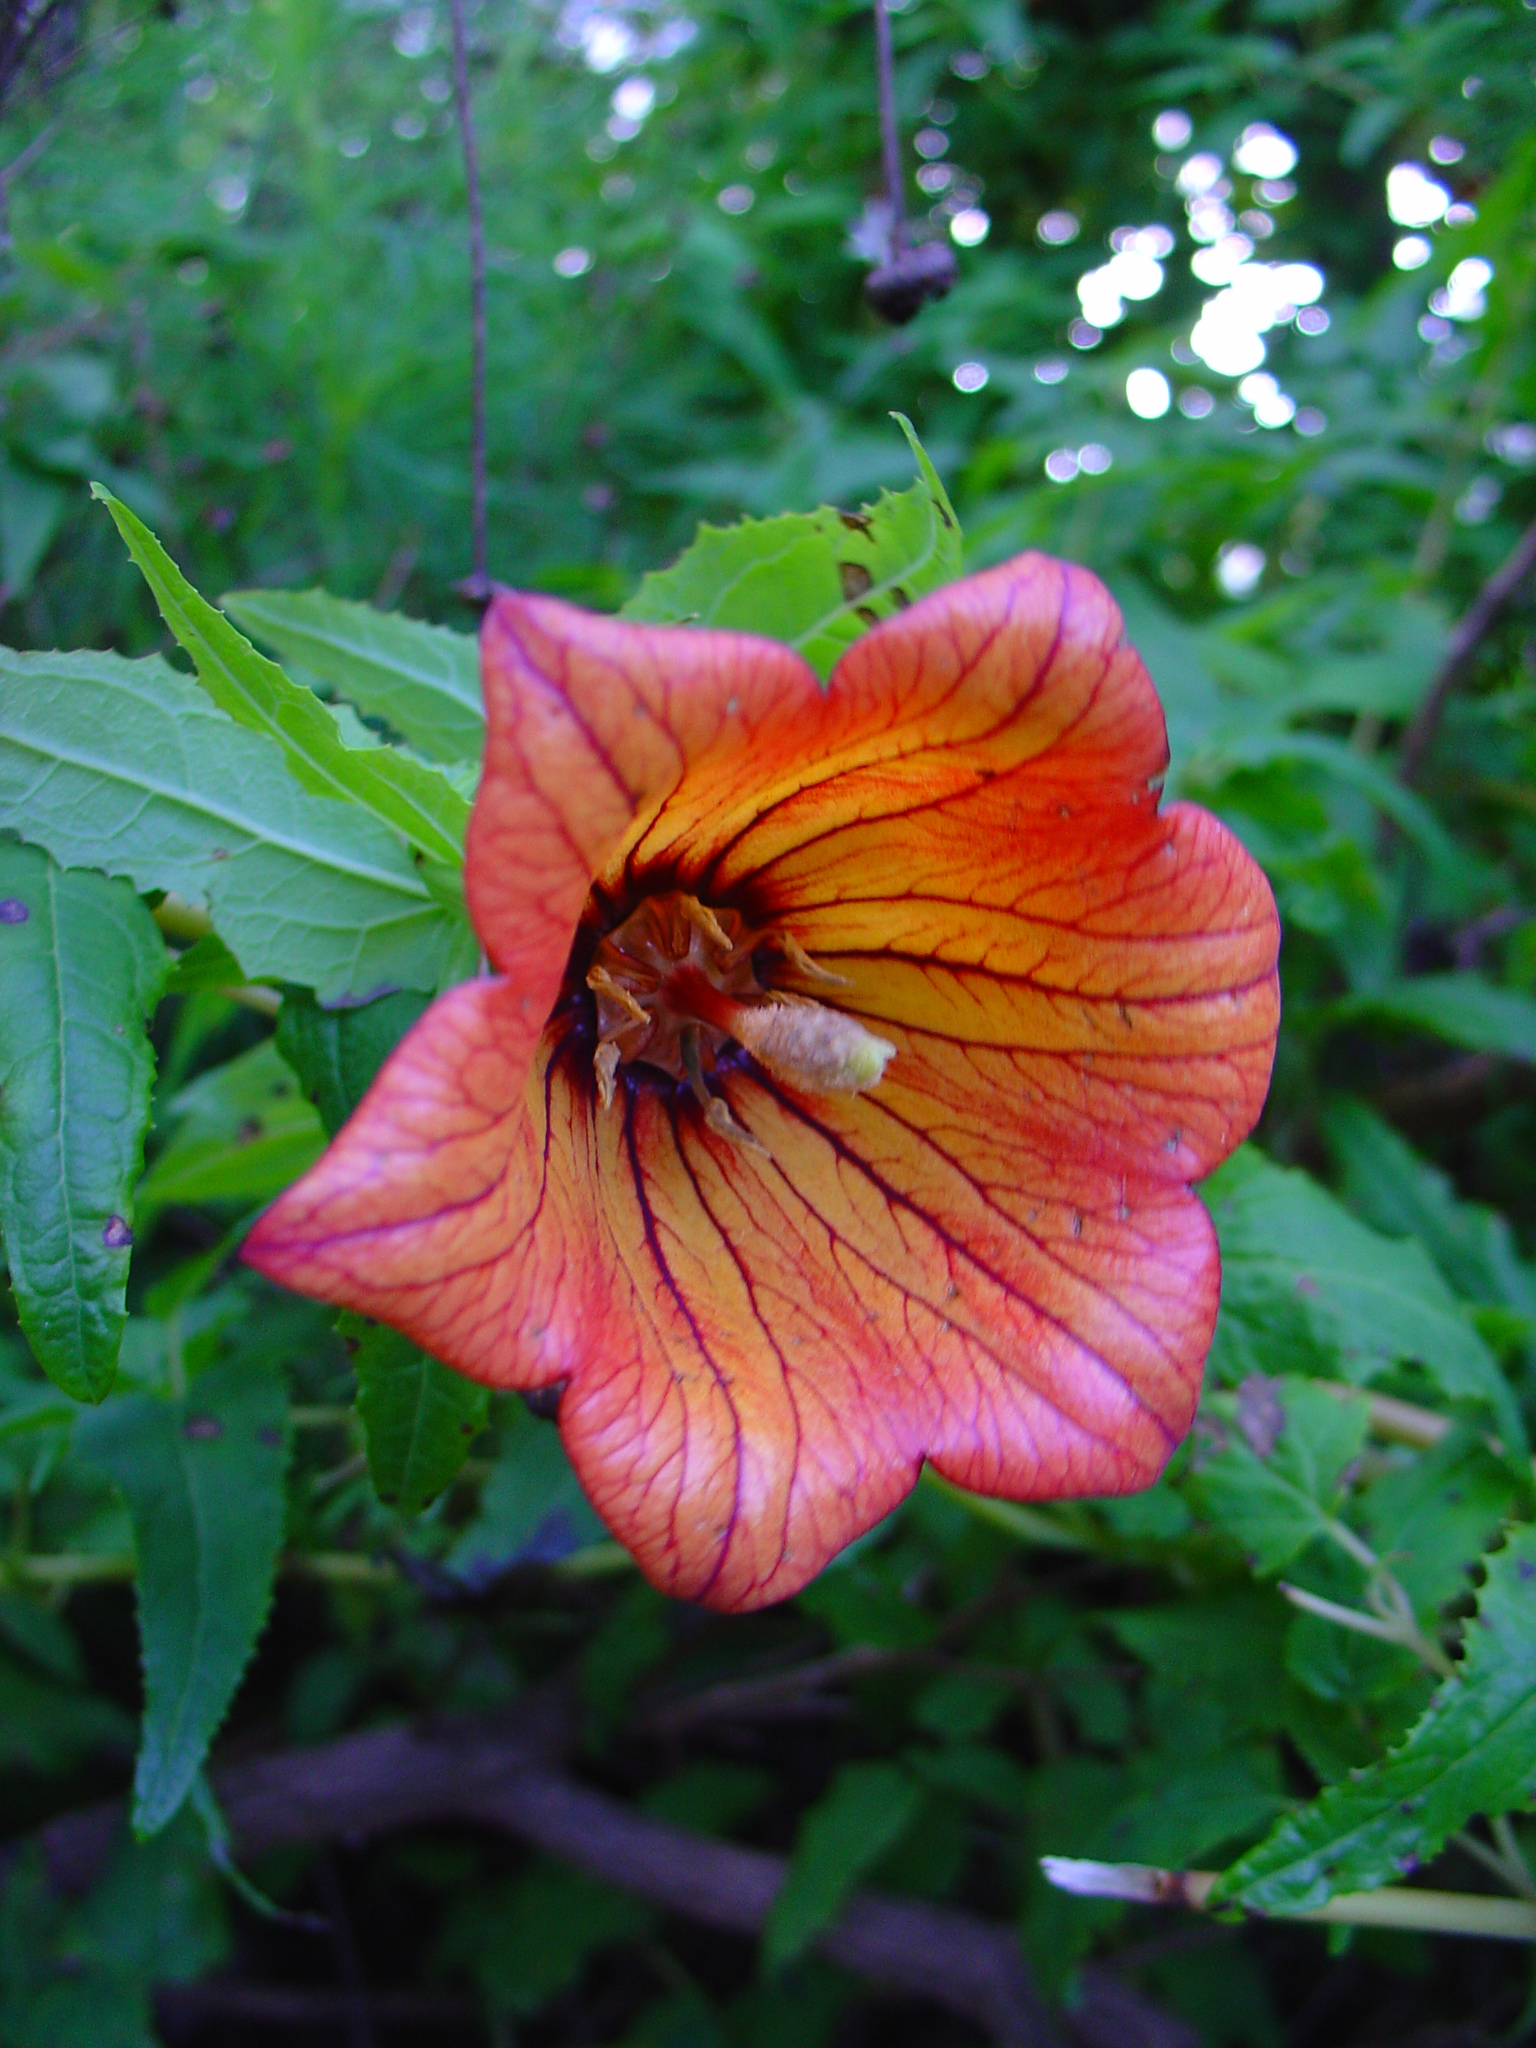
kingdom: Plantae
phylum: Tracheophyta
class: Magnoliopsida
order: Asterales
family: Campanulaceae
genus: Canarina
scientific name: Canarina canariensis
